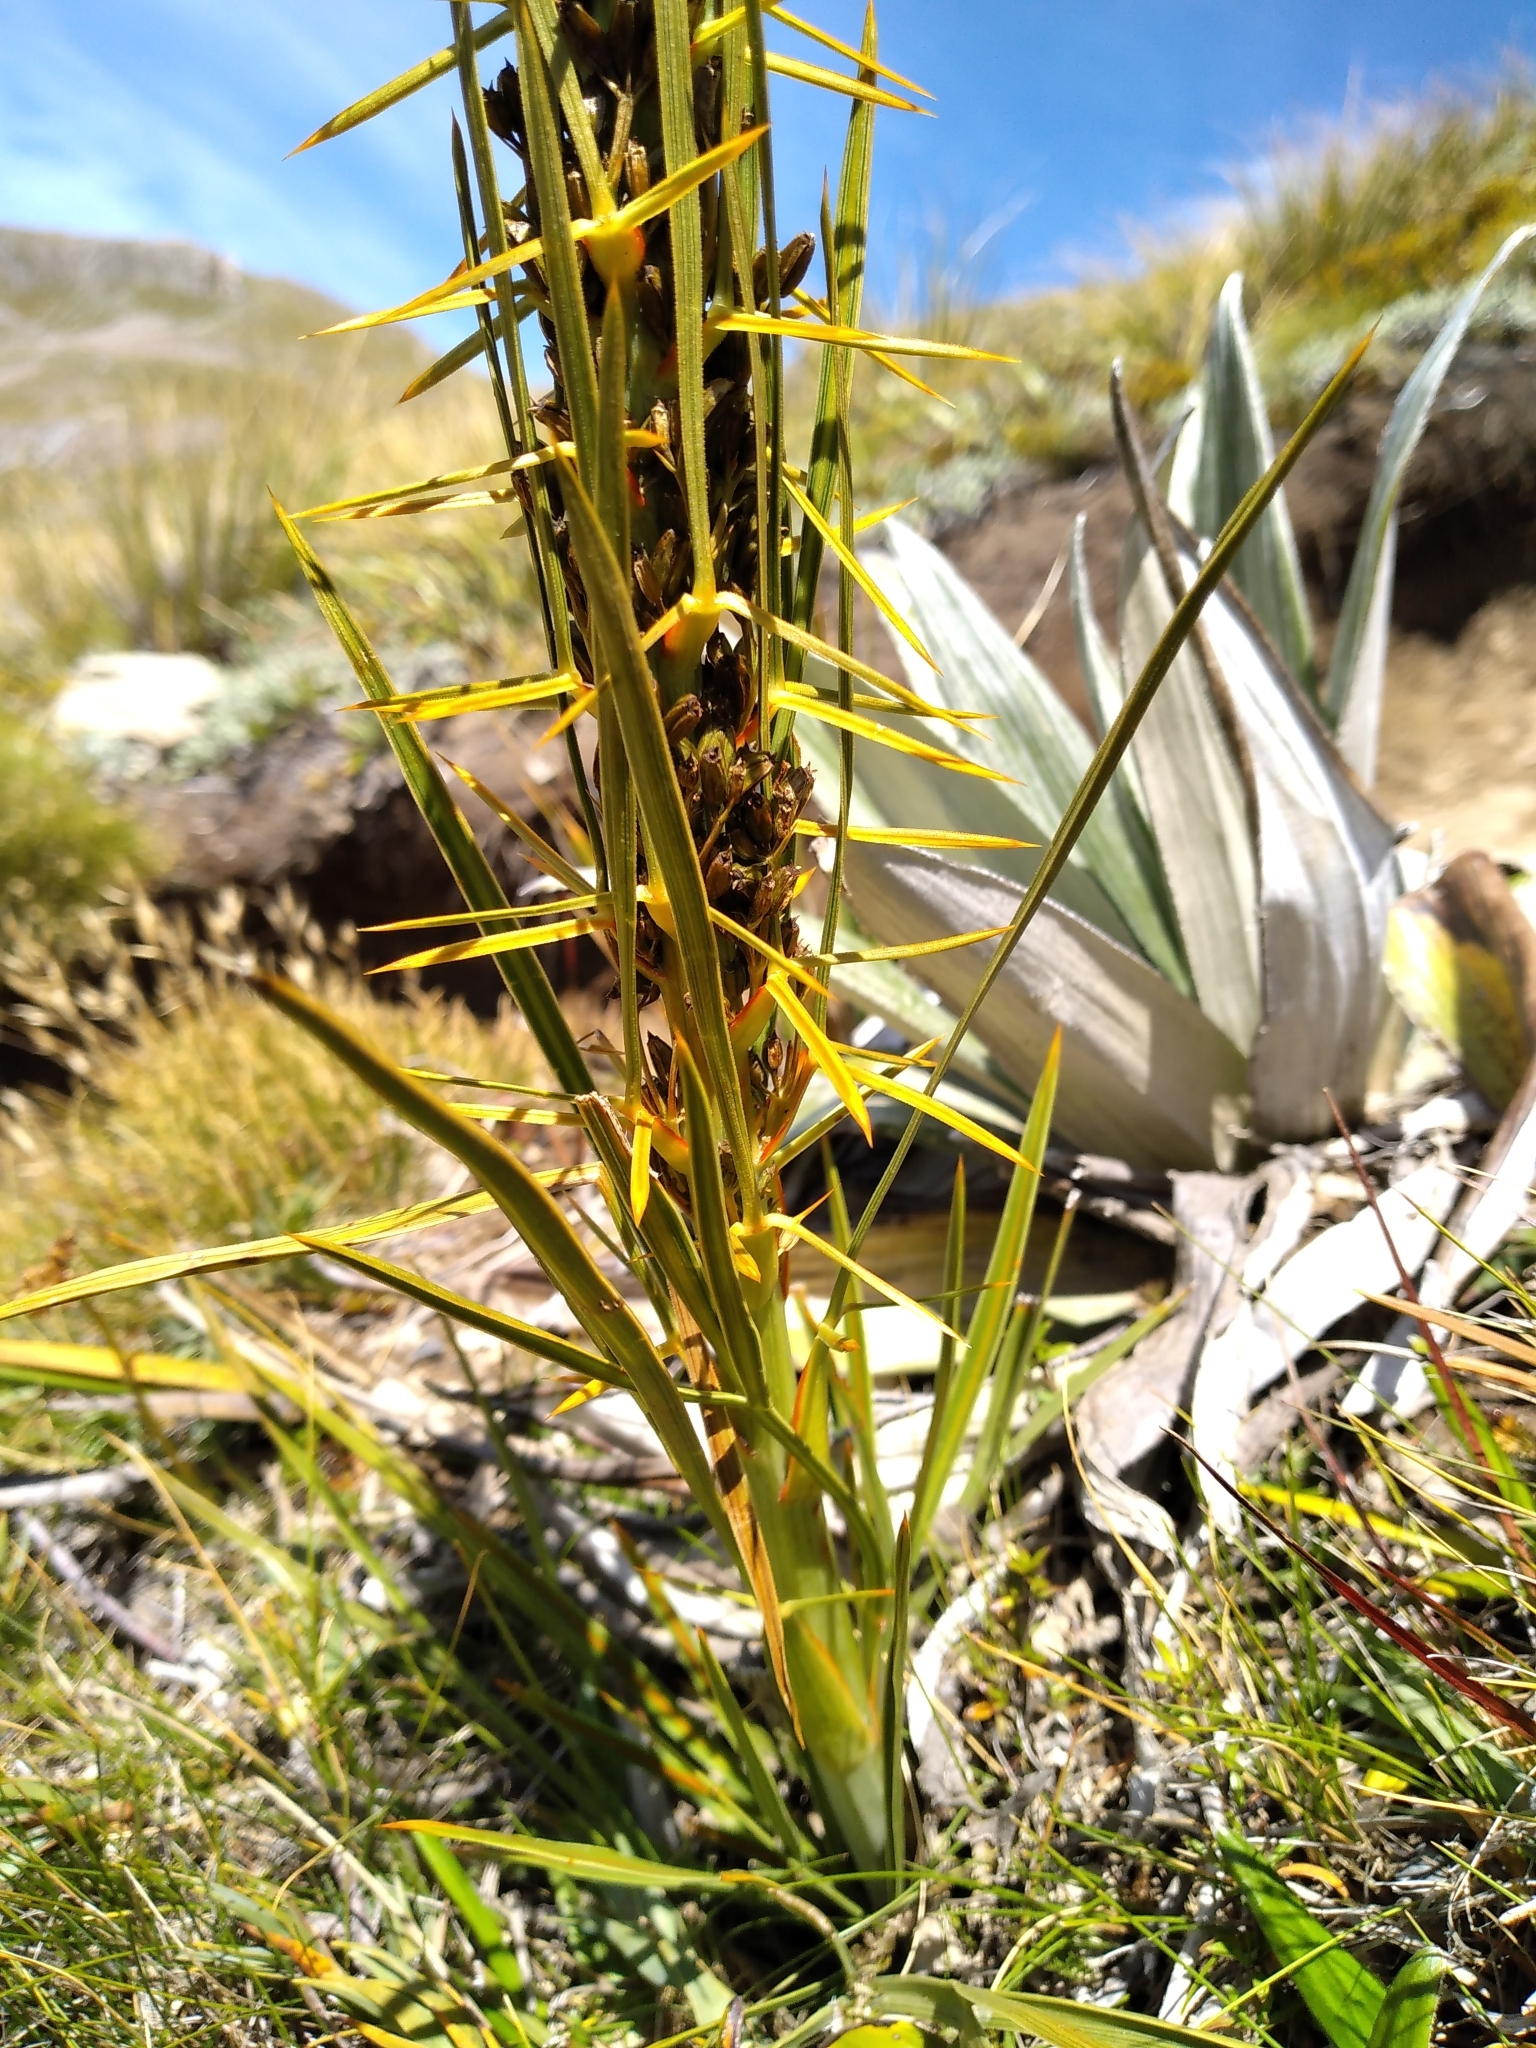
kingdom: Plantae
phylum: Tracheophyta
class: Magnoliopsida
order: Apiales
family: Apiaceae
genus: Aciphylla
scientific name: Aciphylla crenulata
